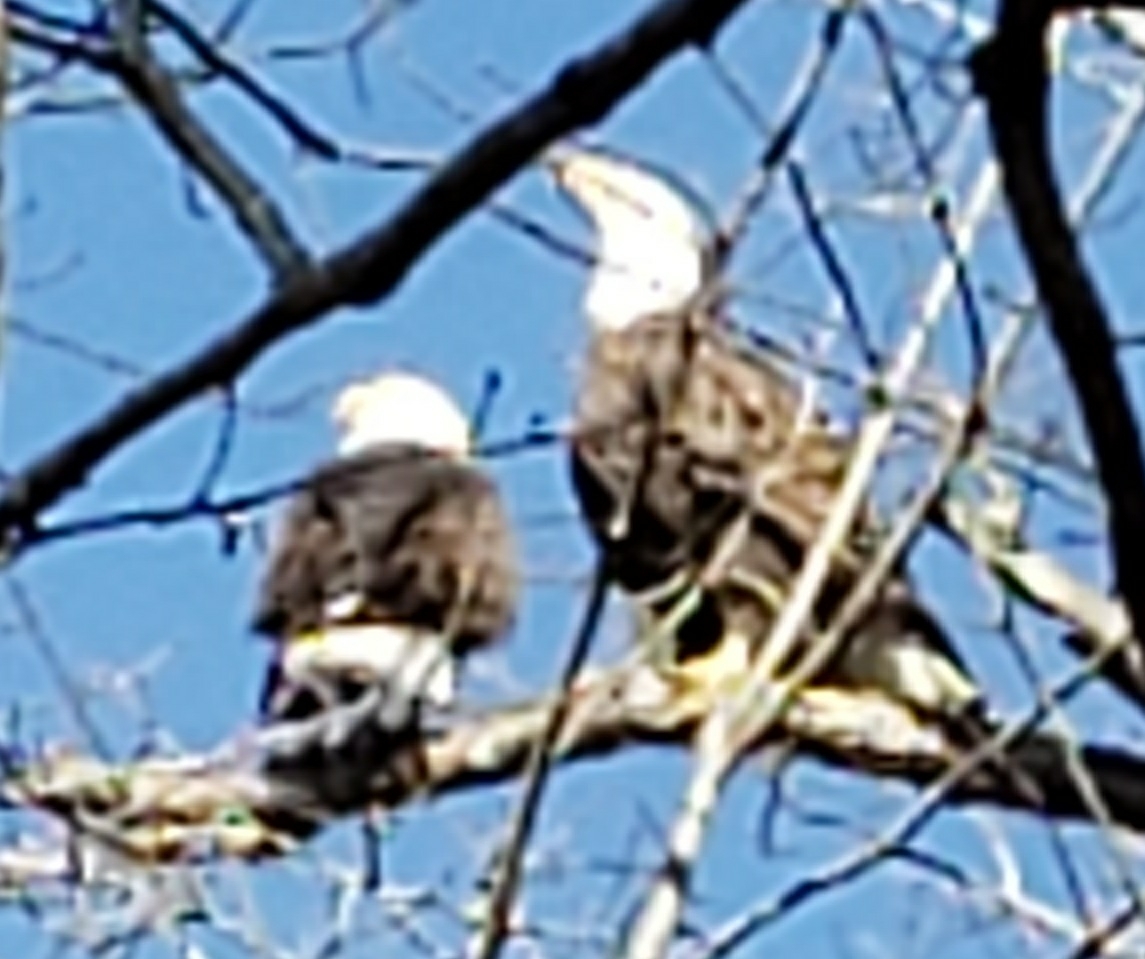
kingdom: Animalia
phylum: Chordata
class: Aves
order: Accipitriformes
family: Accipitridae
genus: Haliaeetus
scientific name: Haliaeetus leucocephalus
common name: Bald eagle
